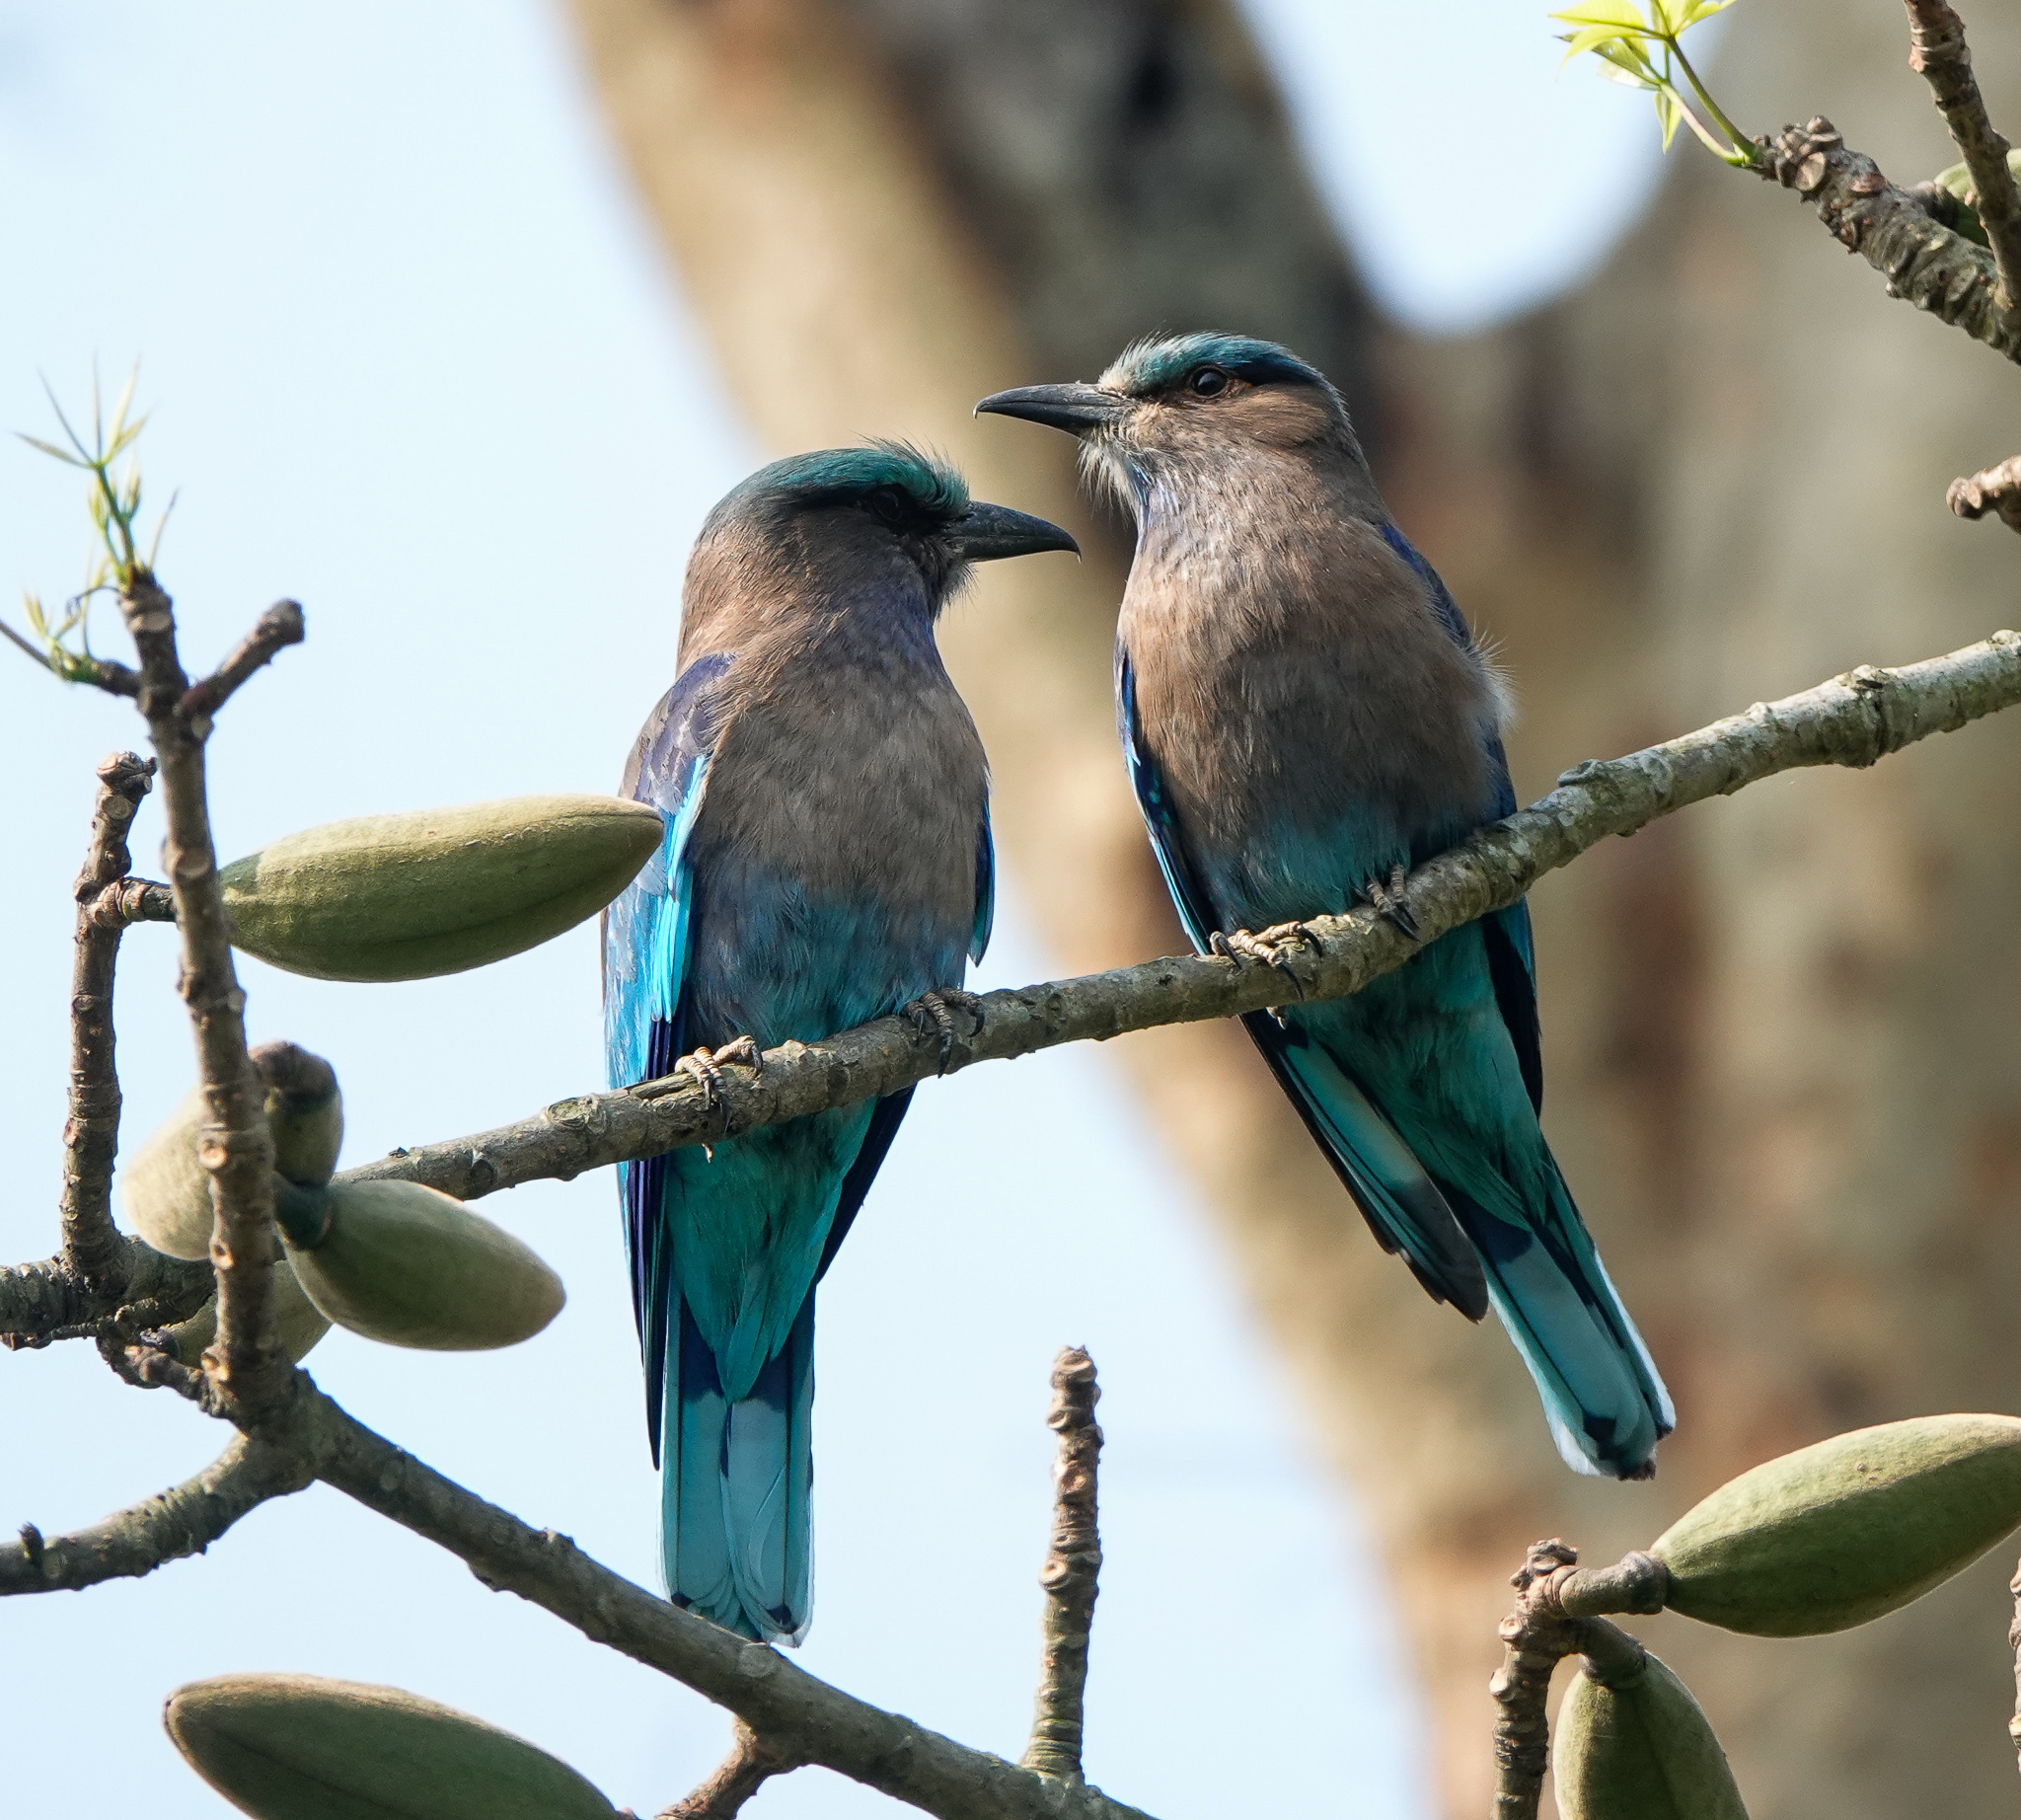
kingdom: Animalia
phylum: Chordata
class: Aves
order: Coraciiformes
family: Coraciidae
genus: Coracias
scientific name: Coracias affinis
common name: Indochinese roller
